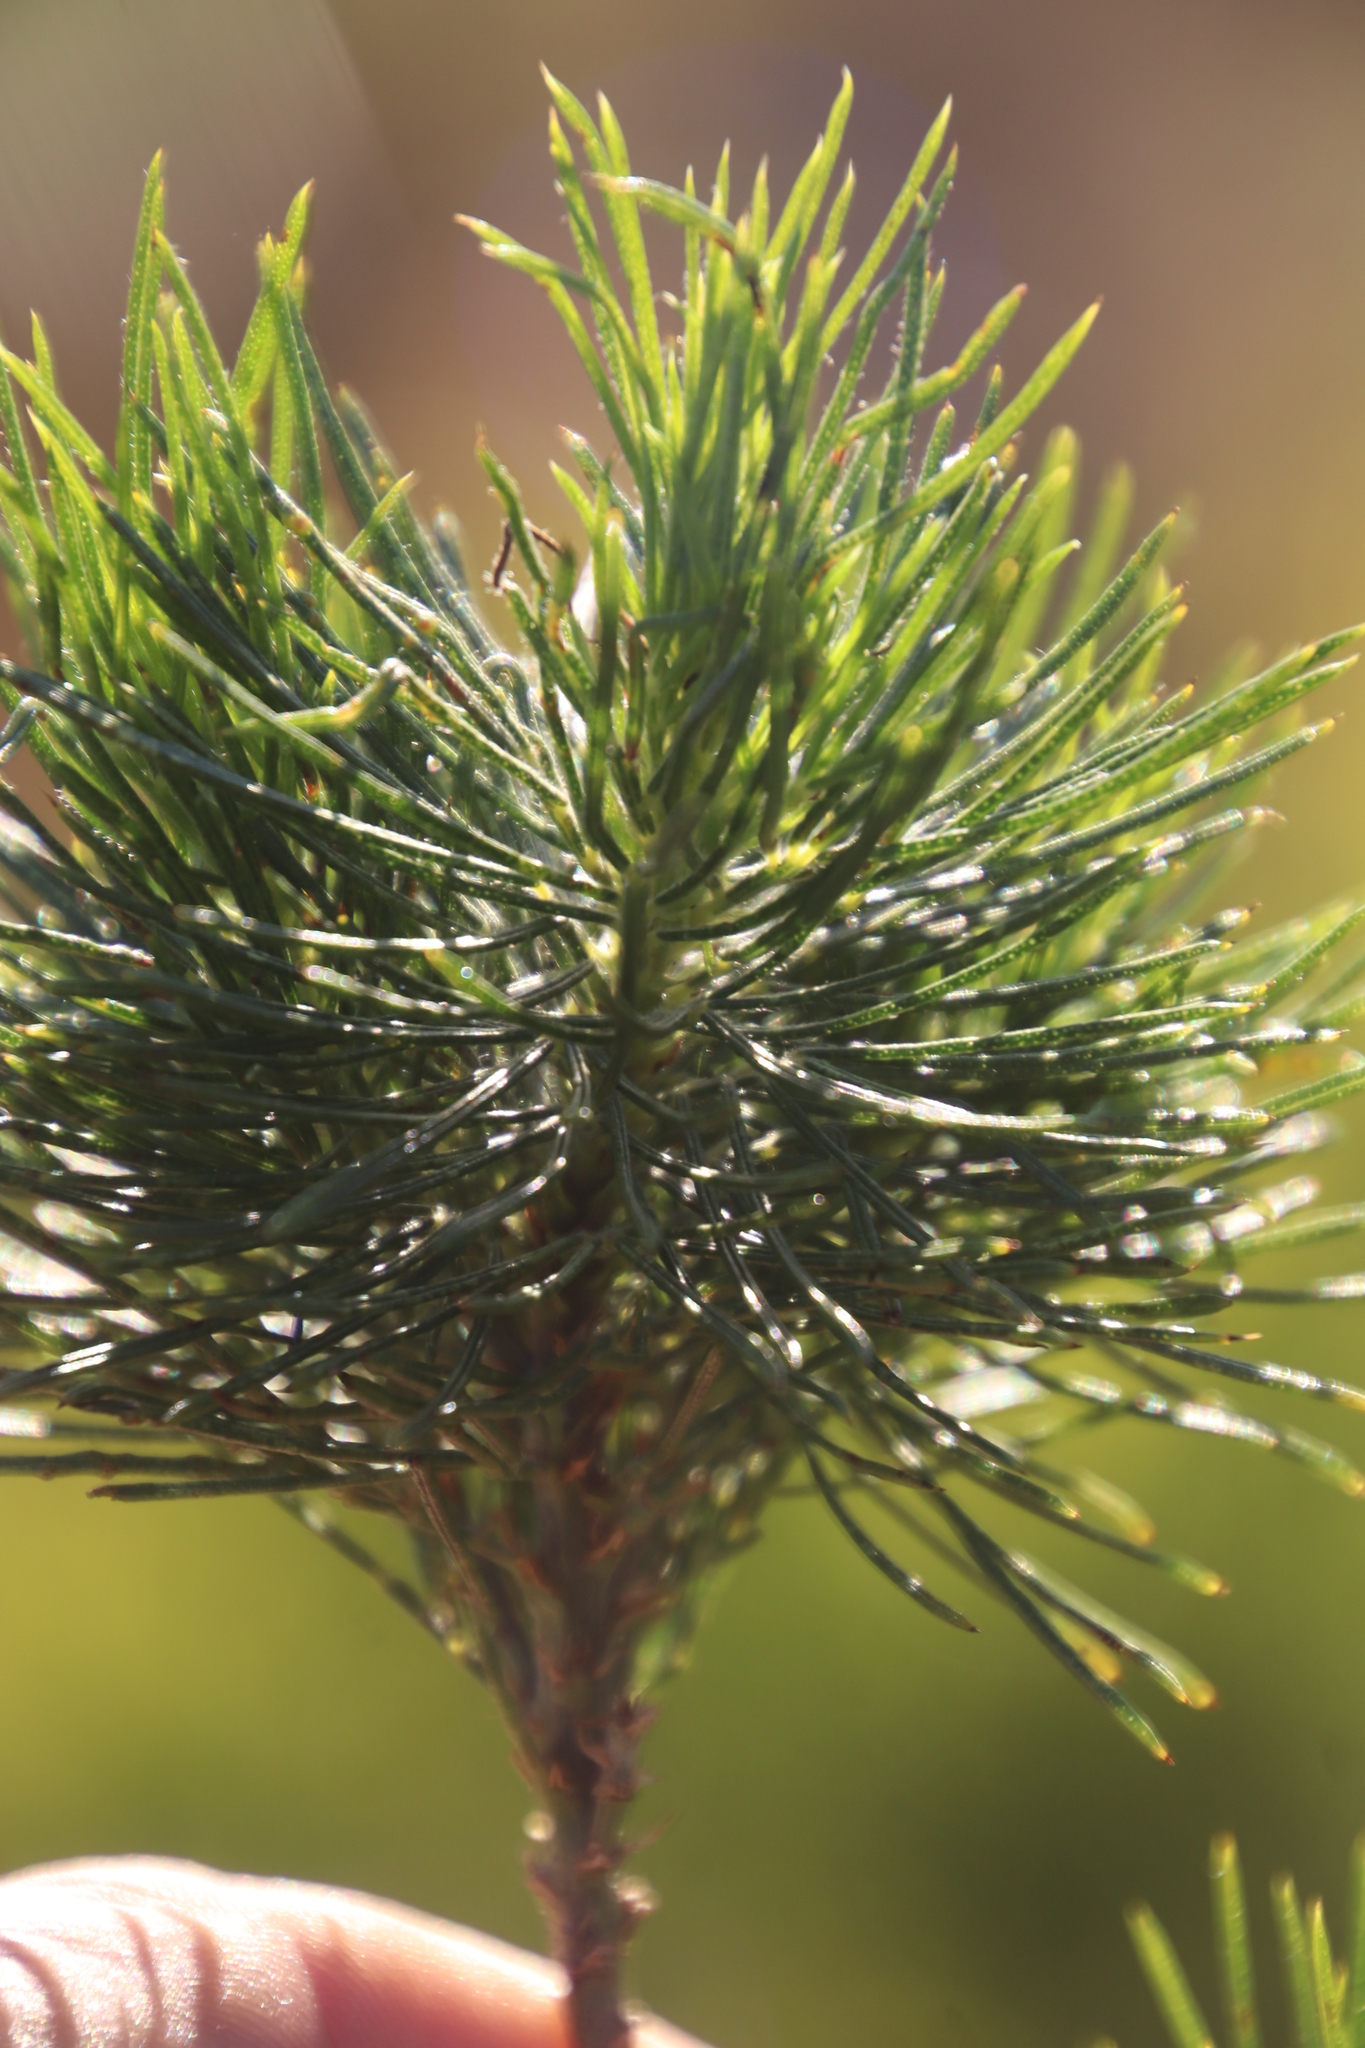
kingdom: Plantae
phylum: Tracheophyta
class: Magnoliopsida
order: Fabales
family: Fabaceae
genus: Psoralea
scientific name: Psoralea pinnata
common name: African scurfpea
